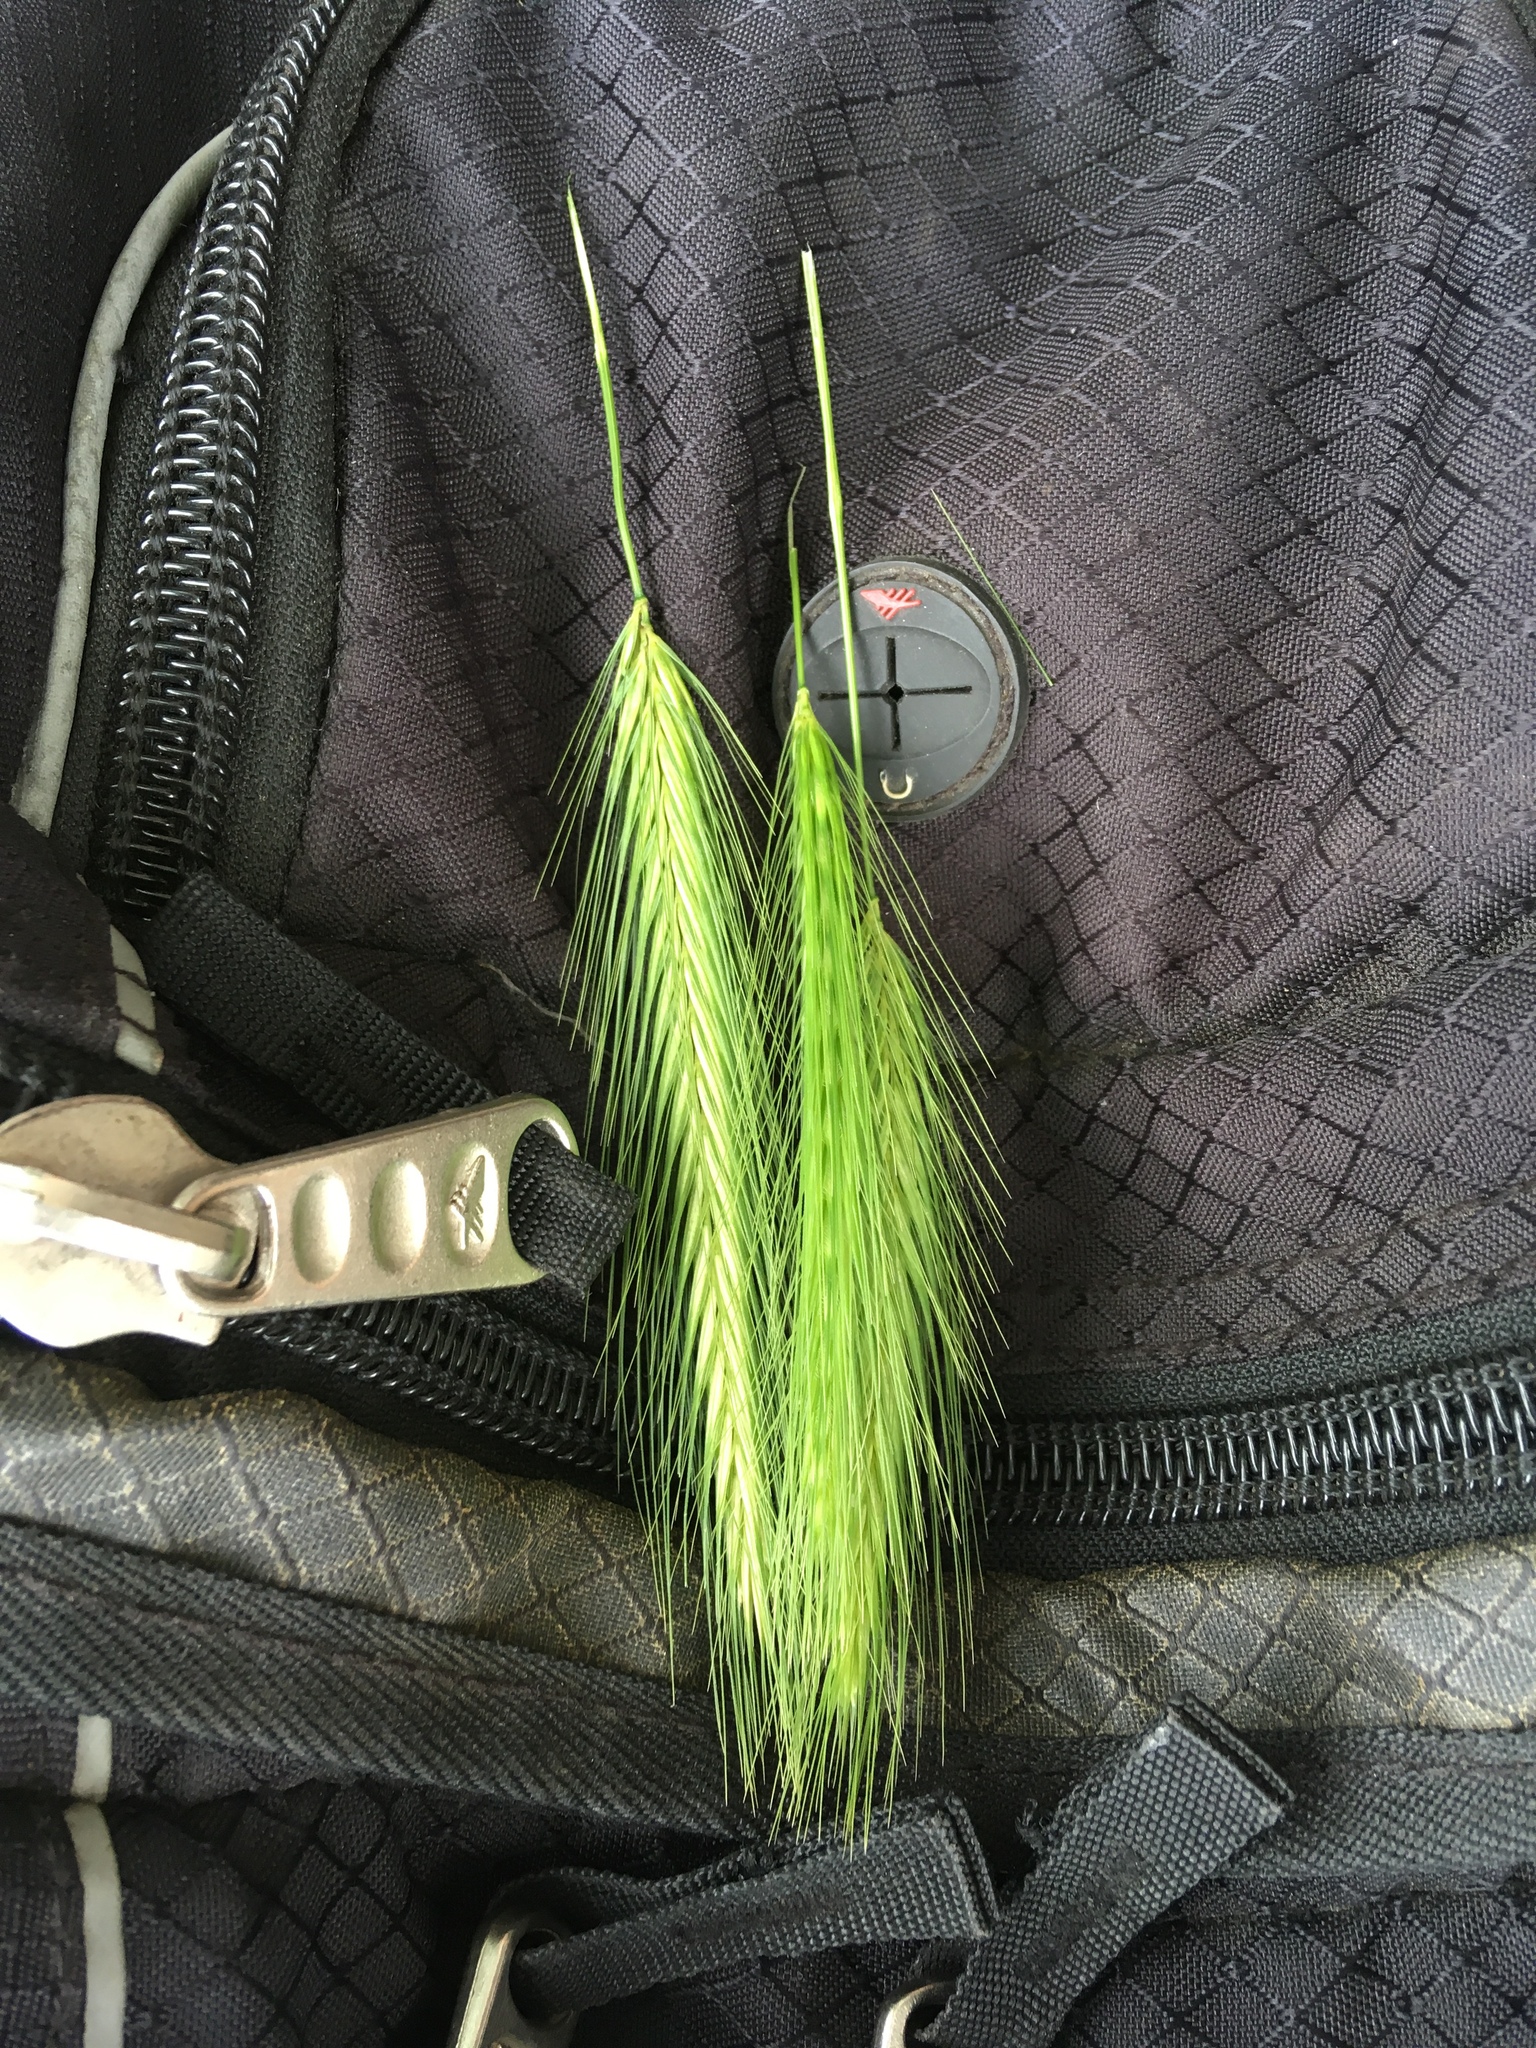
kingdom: Plantae
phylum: Tracheophyta
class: Liliopsida
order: Poales
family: Poaceae
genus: Hordeum
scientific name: Hordeum murinum
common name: Wall barley
